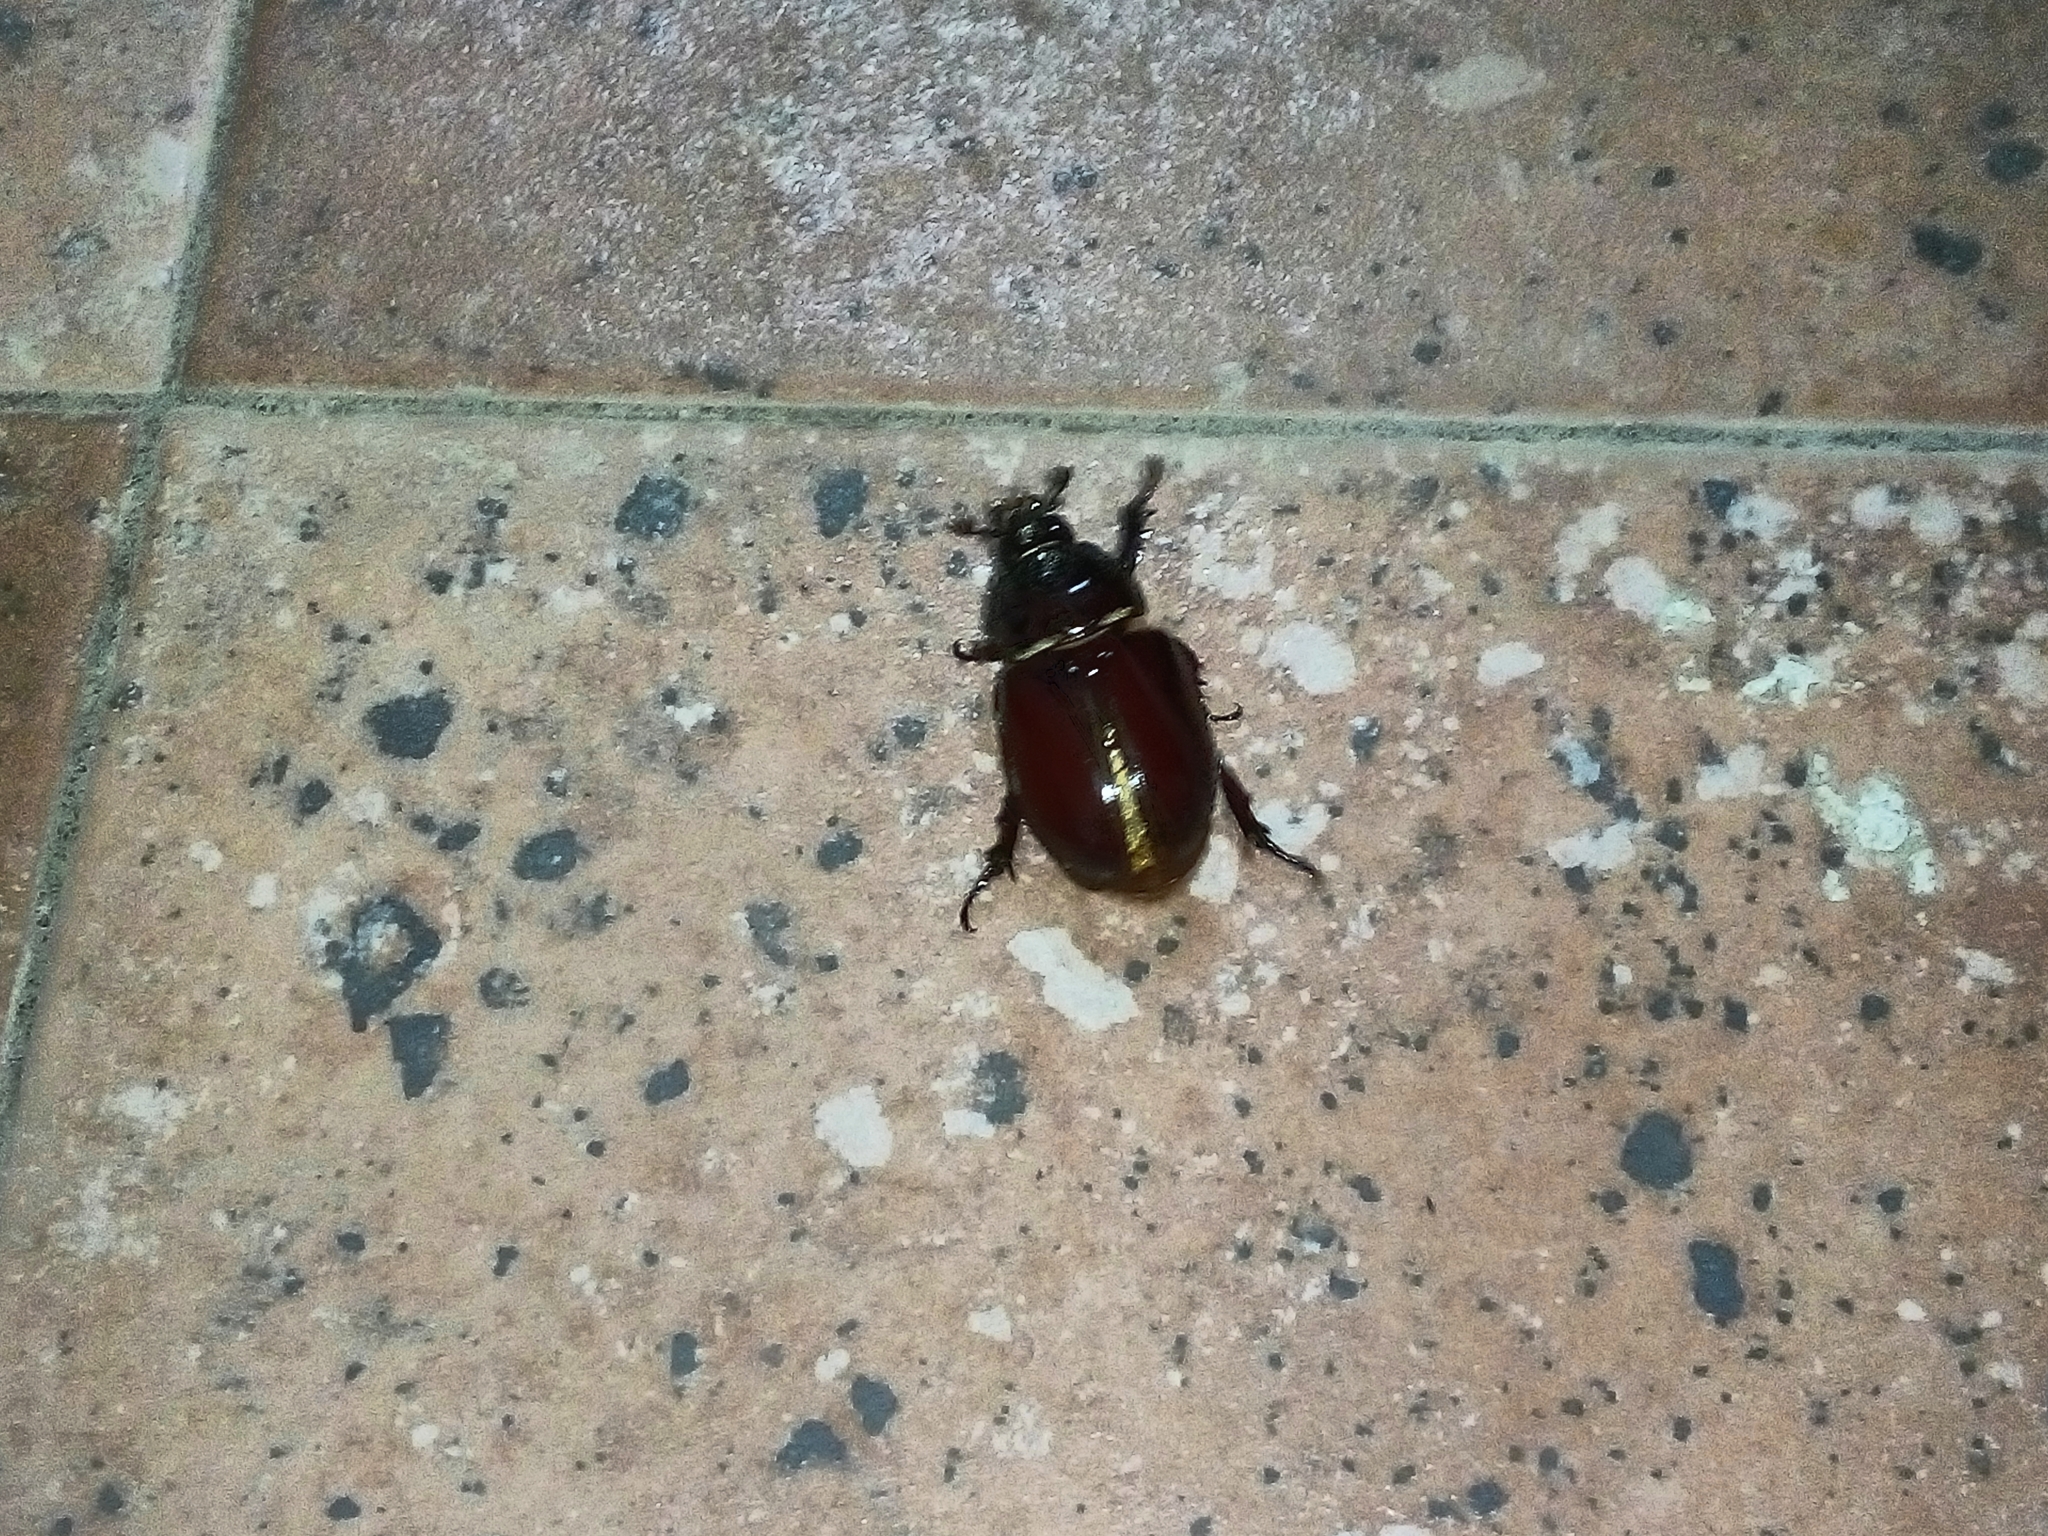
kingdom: Animalia
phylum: Arthropoda
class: Insecta
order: Coleoptera
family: Scarabaeidae
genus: Strategus
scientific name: Strategus aloeus
